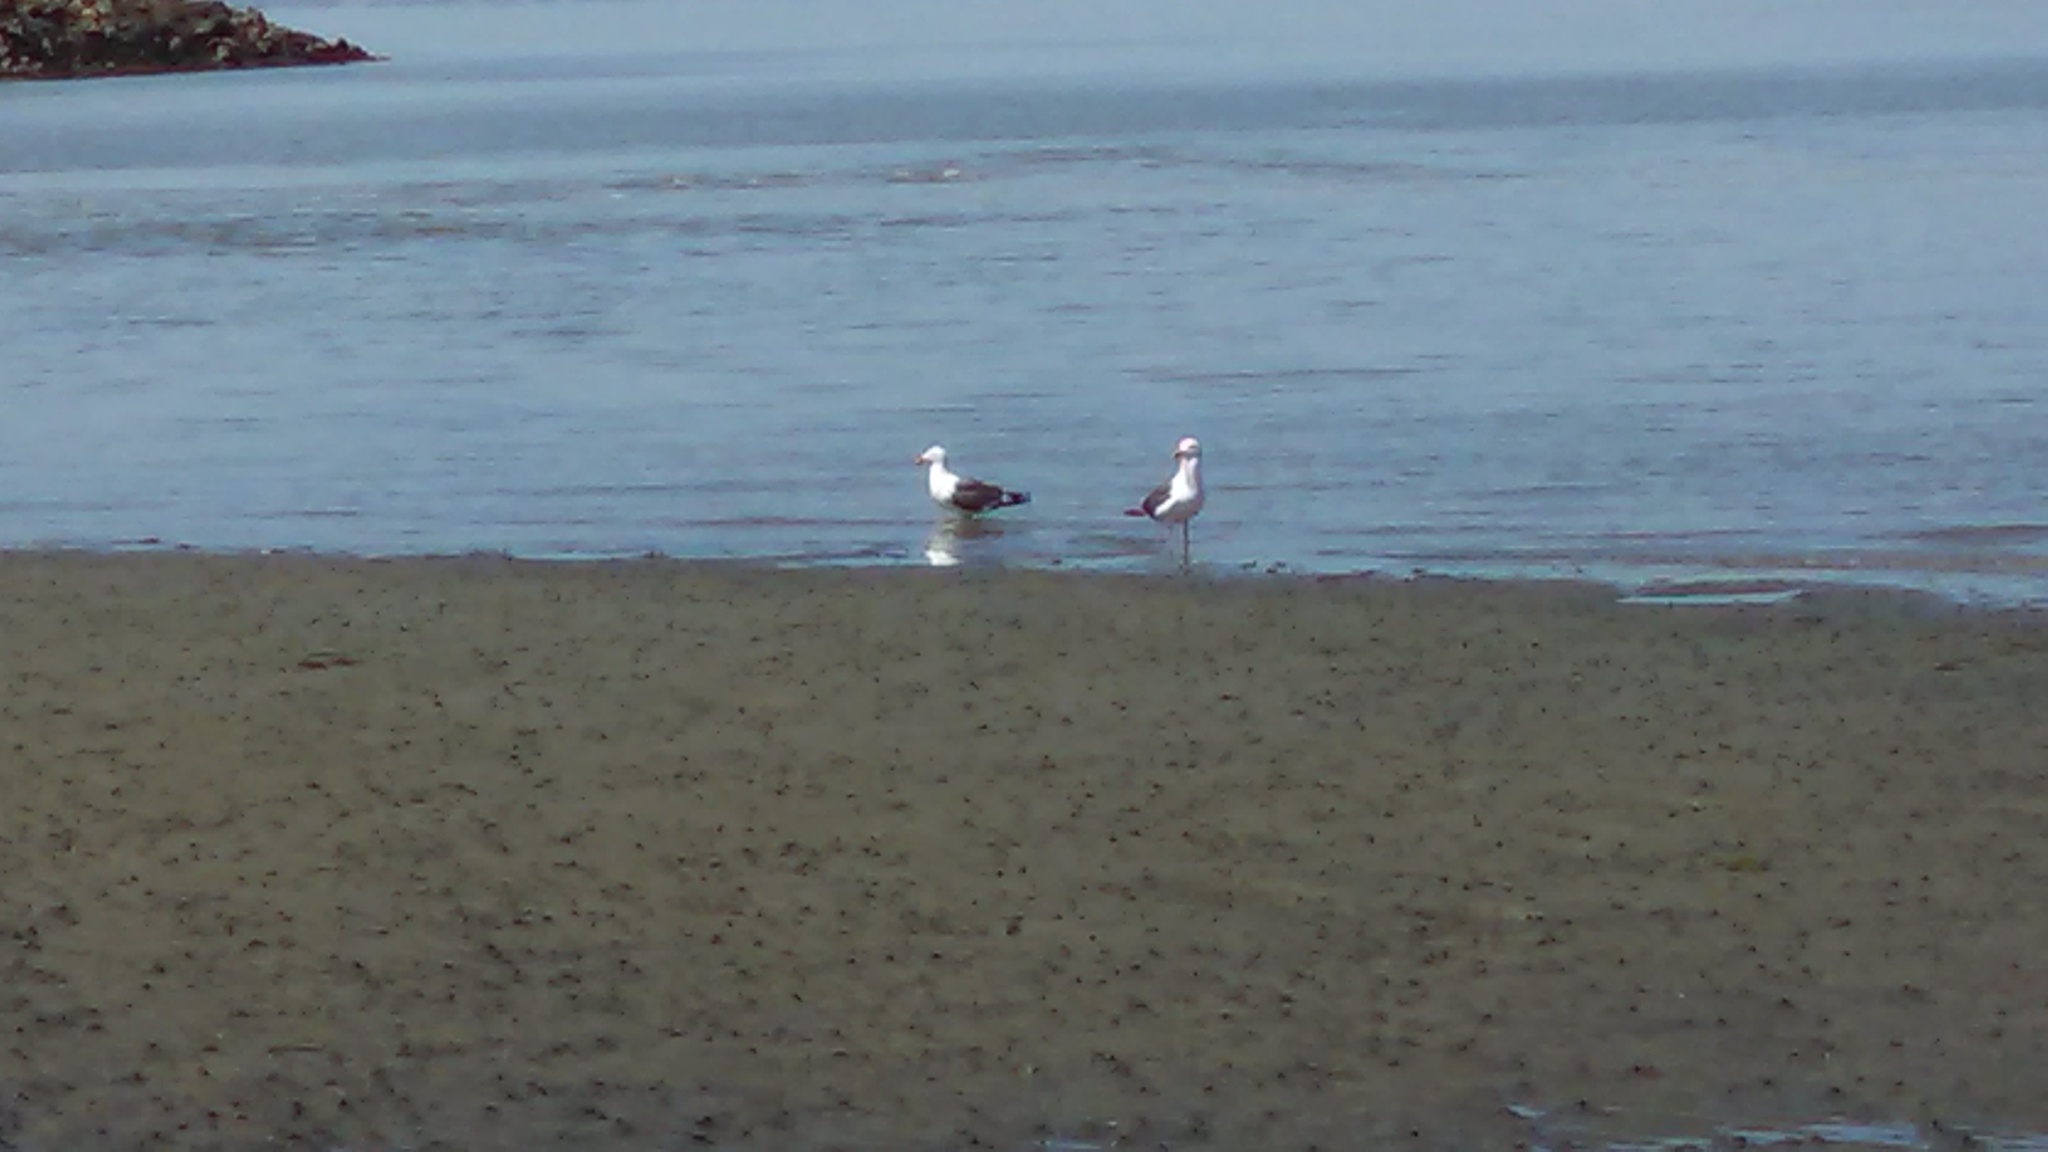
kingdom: Animalia
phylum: Chordata
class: Aves
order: Charadriiformes
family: Laridae
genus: Larus
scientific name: Larus occidentalis
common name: Western gull
